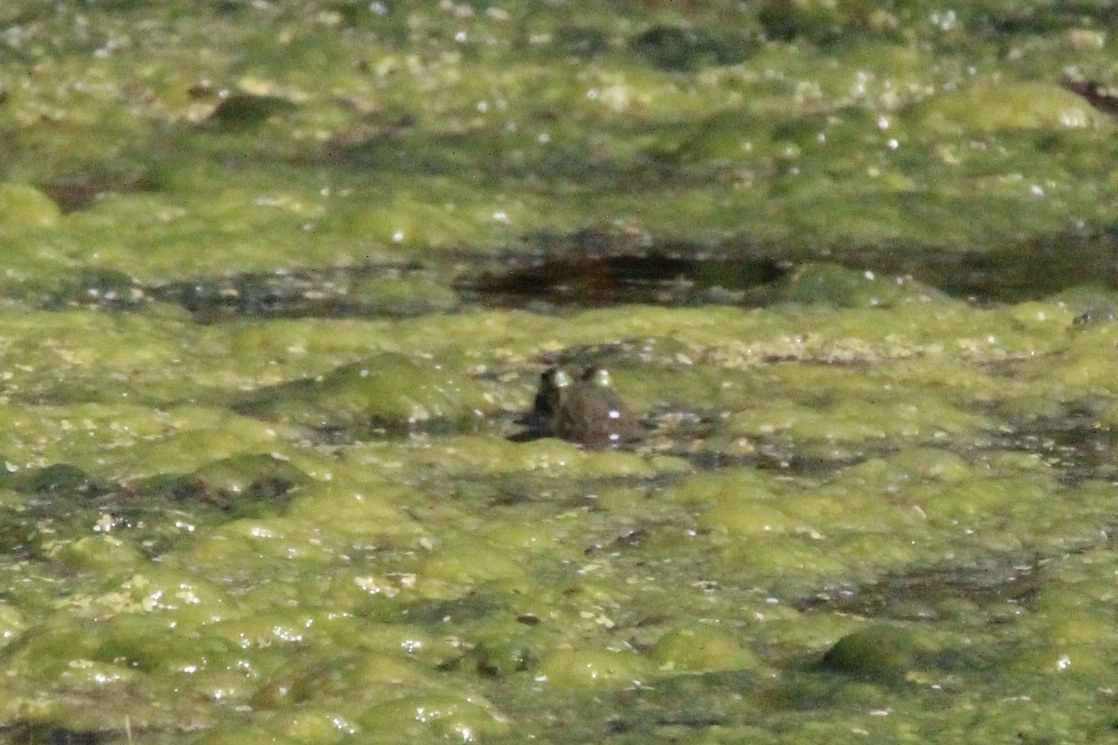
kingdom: Animalia
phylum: Chordata
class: Amphibia
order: Anura
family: Ranidae
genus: Lithobates
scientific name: Lithobates catesbeianus
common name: American bullfrog
